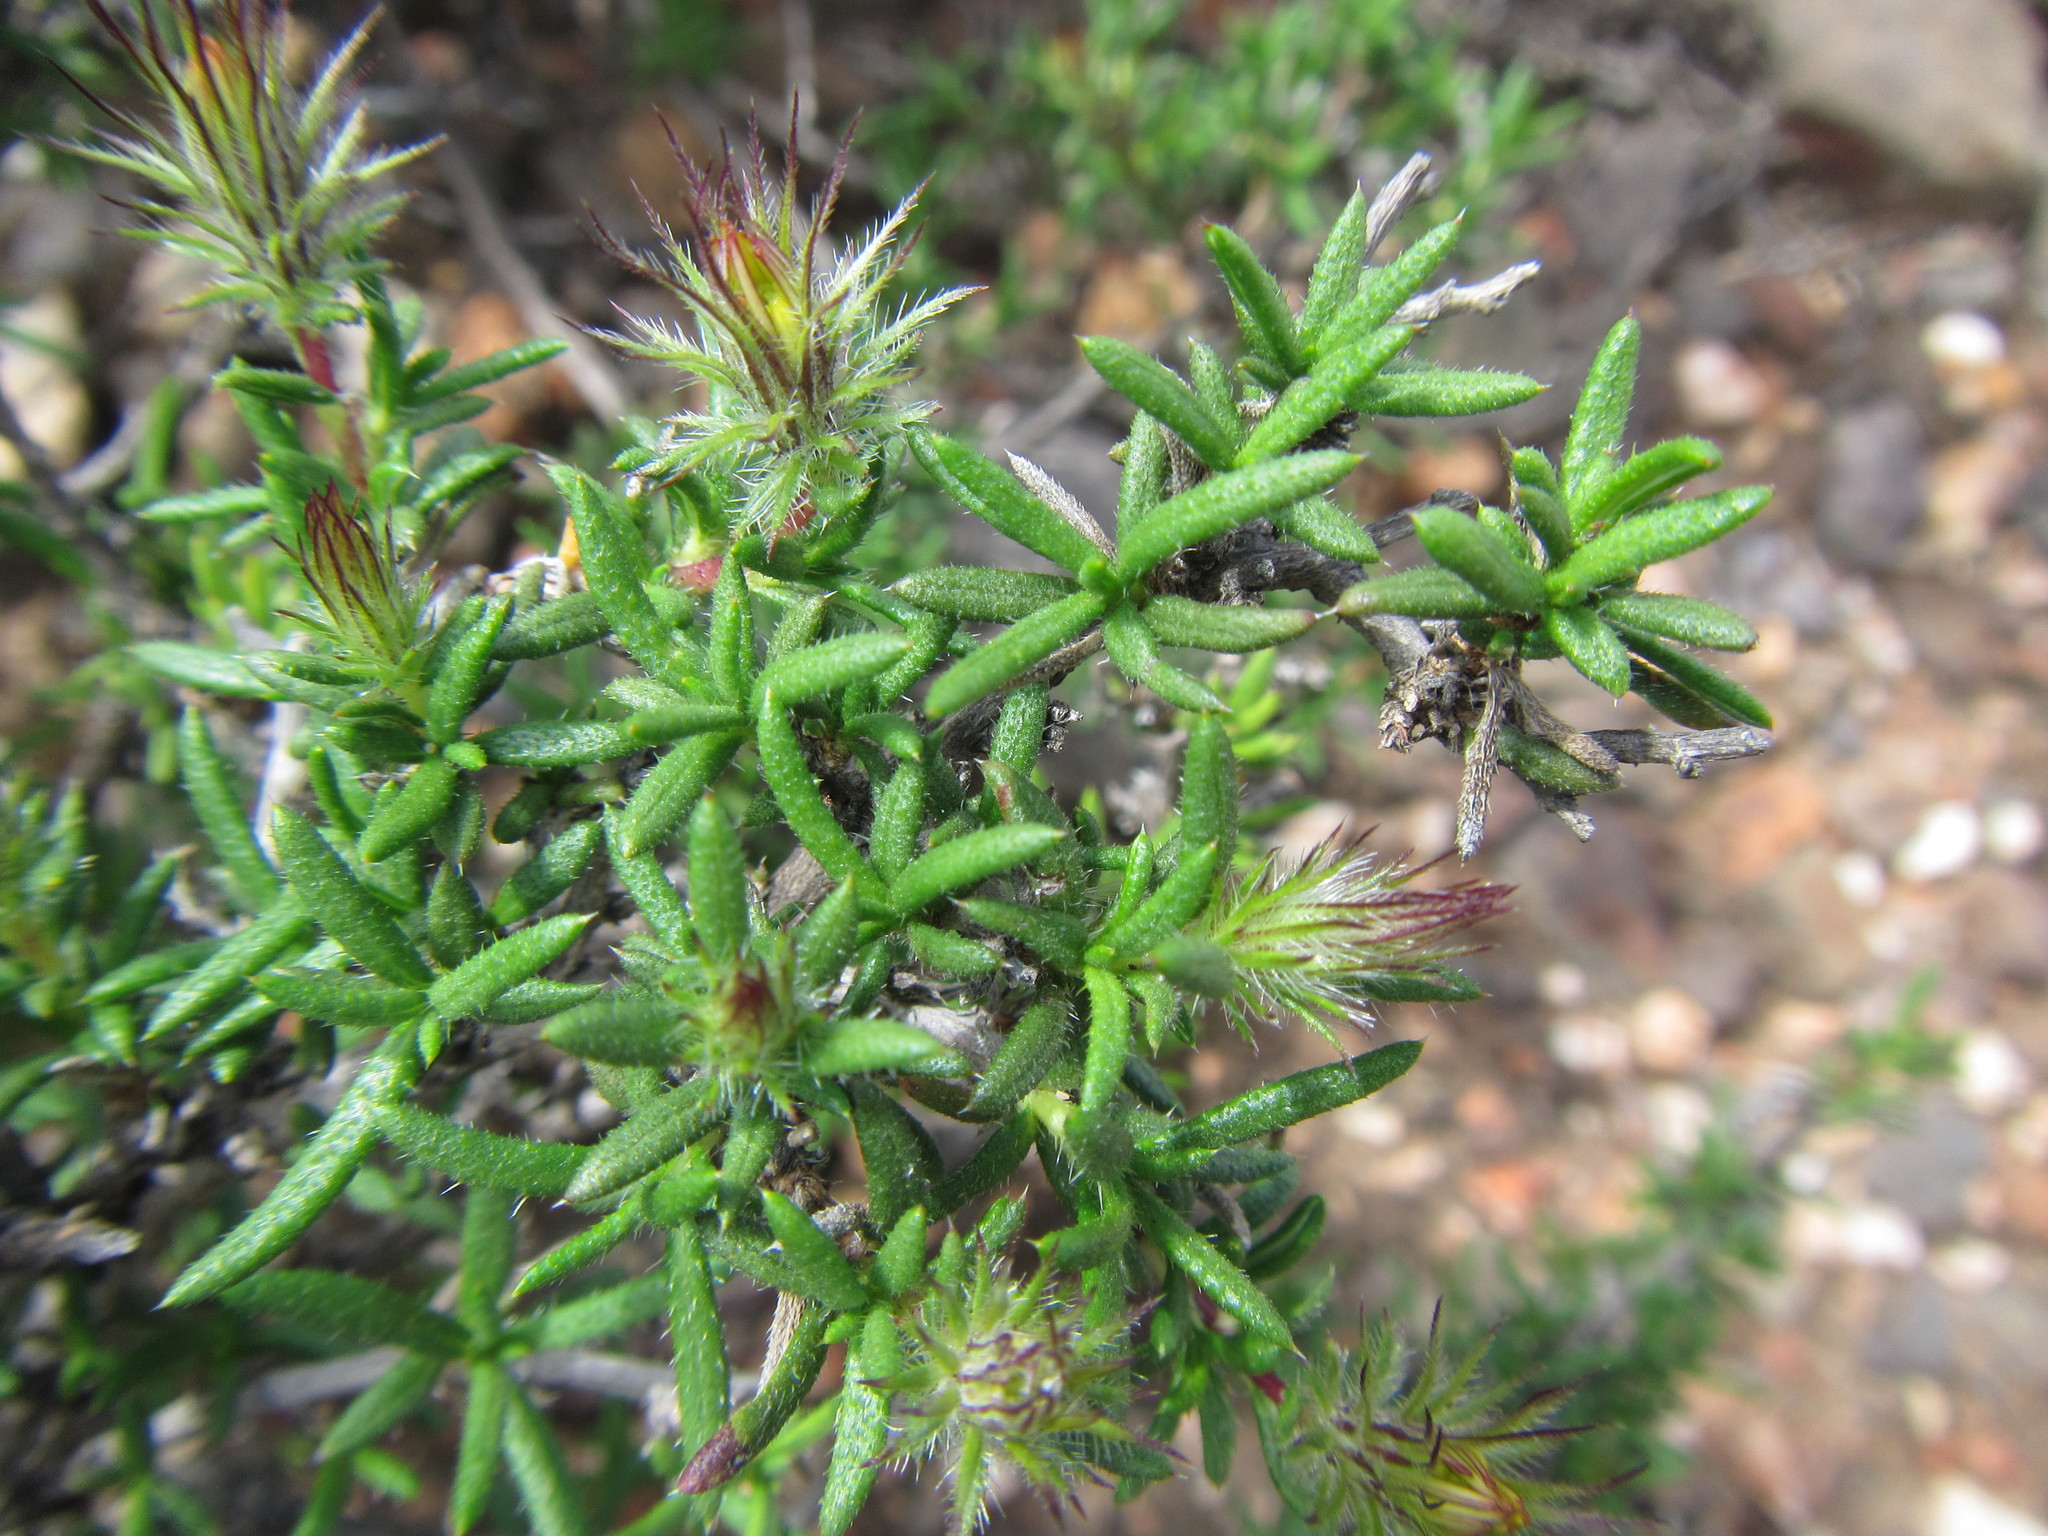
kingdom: Plantae
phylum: Tracheophyta
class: Magnoliopsida
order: Asterales
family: Asteraceae
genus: Hirpicium
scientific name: Hirpicium integrifolium
